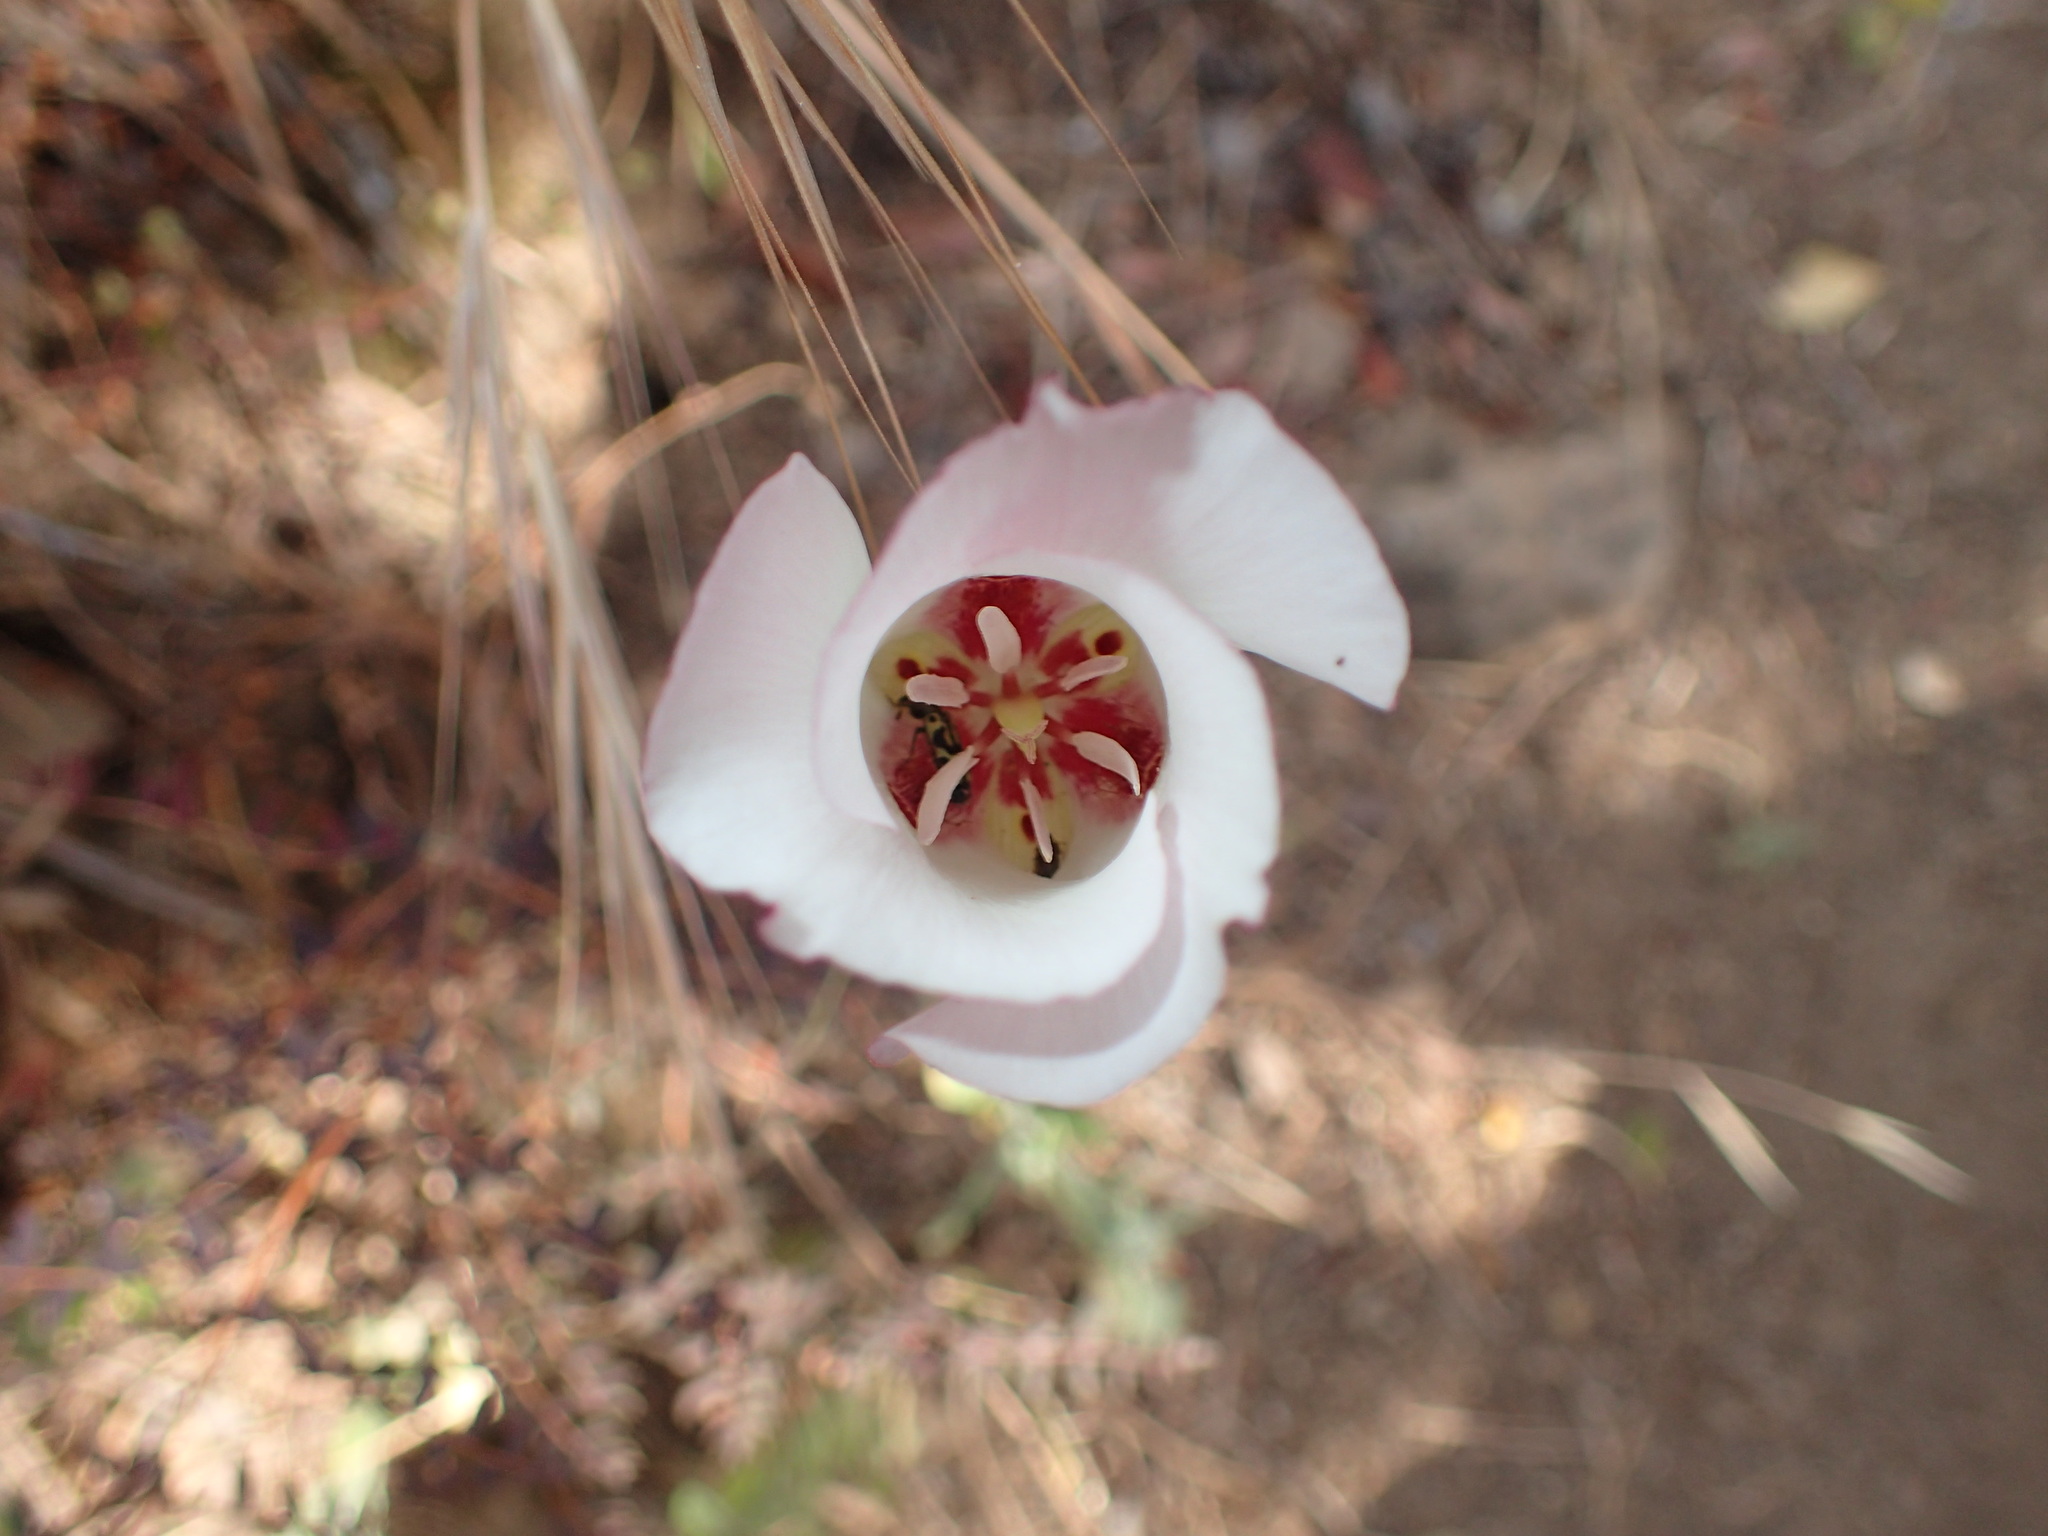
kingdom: Plantae
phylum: Tracheophyta
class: Liliopsida
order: Liliales
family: Liliaceae
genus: Calochortus
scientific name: Calochortus venustus
